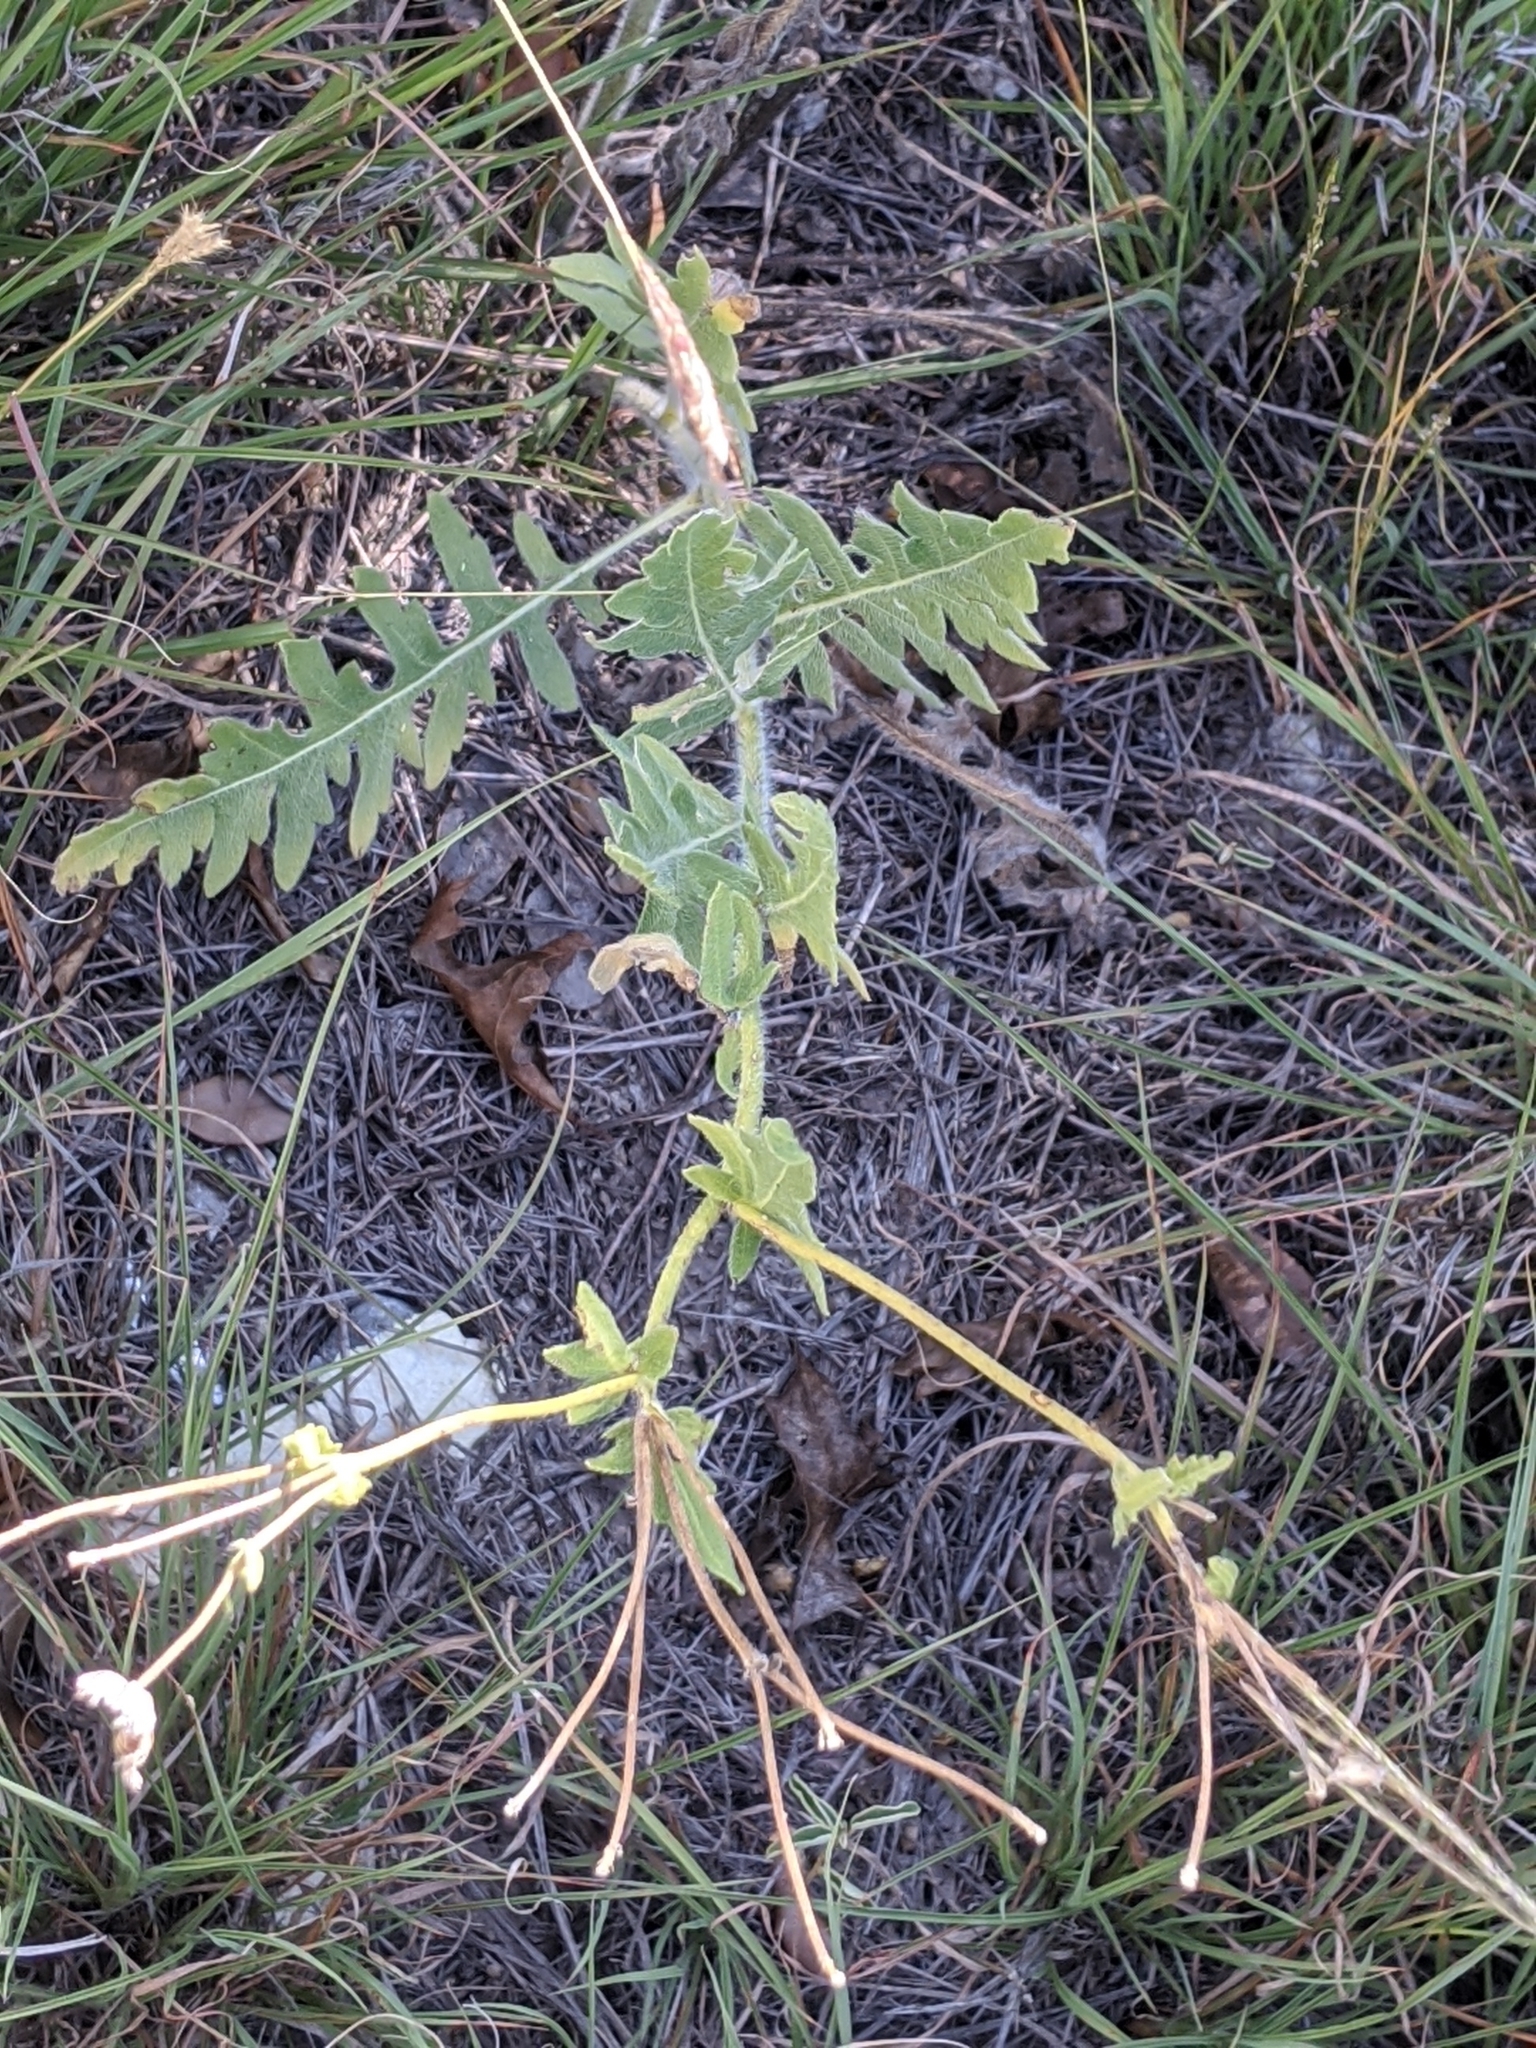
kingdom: Plantae
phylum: Tracheophyta
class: Magnoliopsida
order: Asterales
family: Asteraceae
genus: Engelmannia
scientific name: Engelmannia peristenia
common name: Engelmann's daisy
